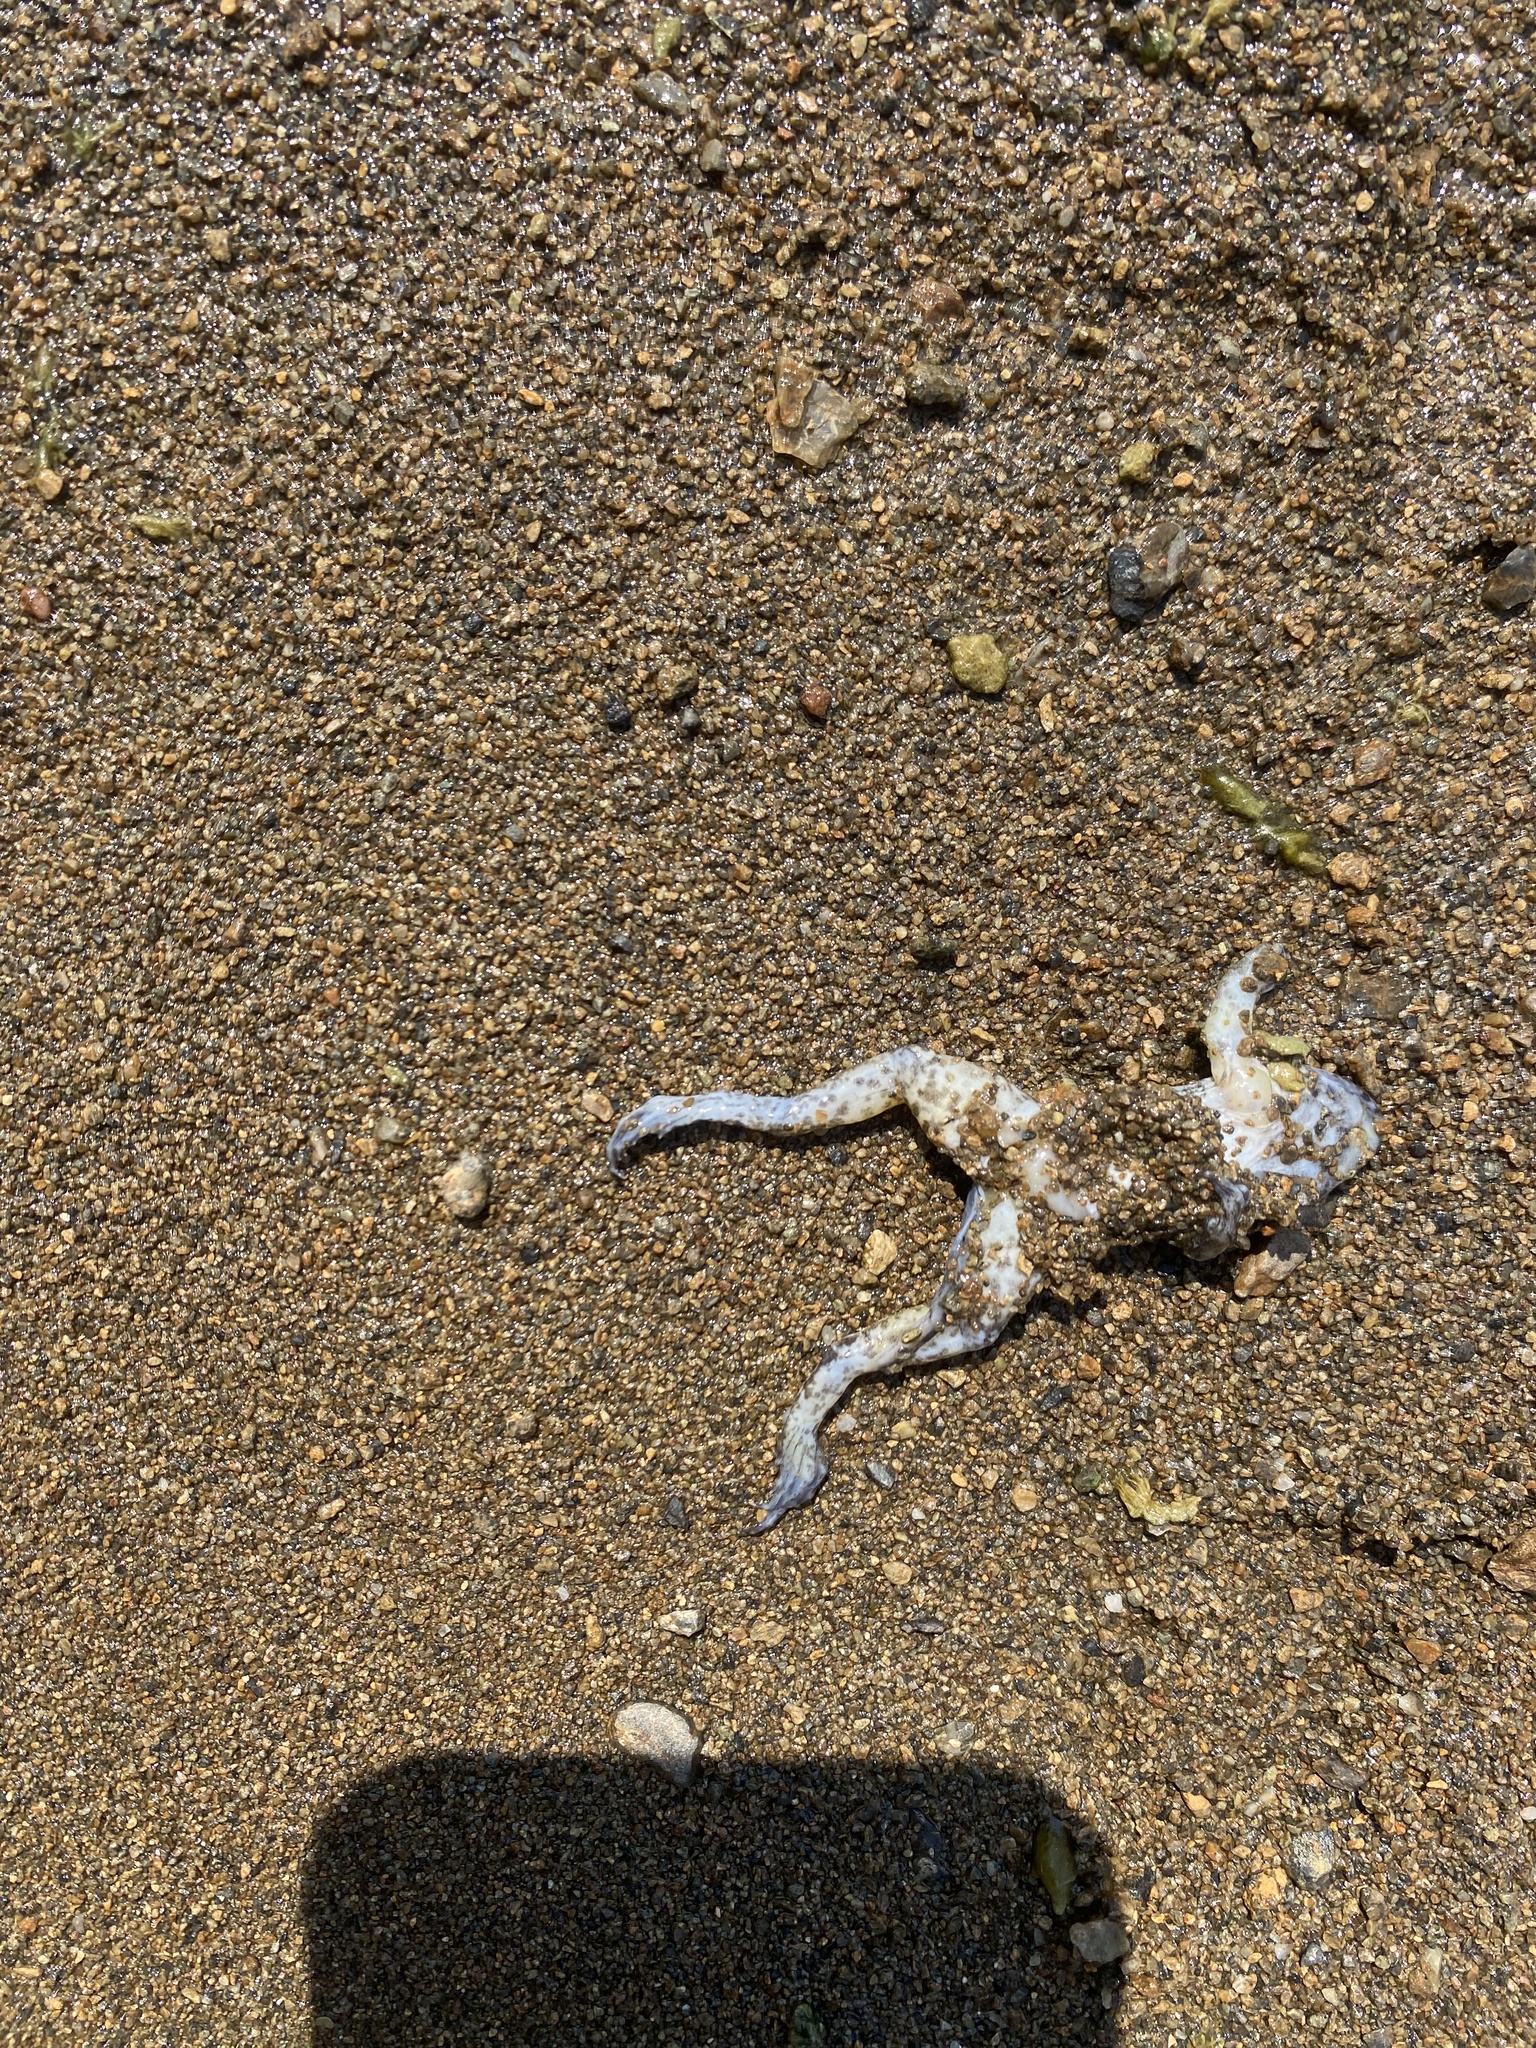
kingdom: Animalia
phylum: Chordata
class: Amphibia
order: Anura
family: Ranidae
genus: Lithobates
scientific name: Lithobates catesbeianus
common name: American bullfrog
